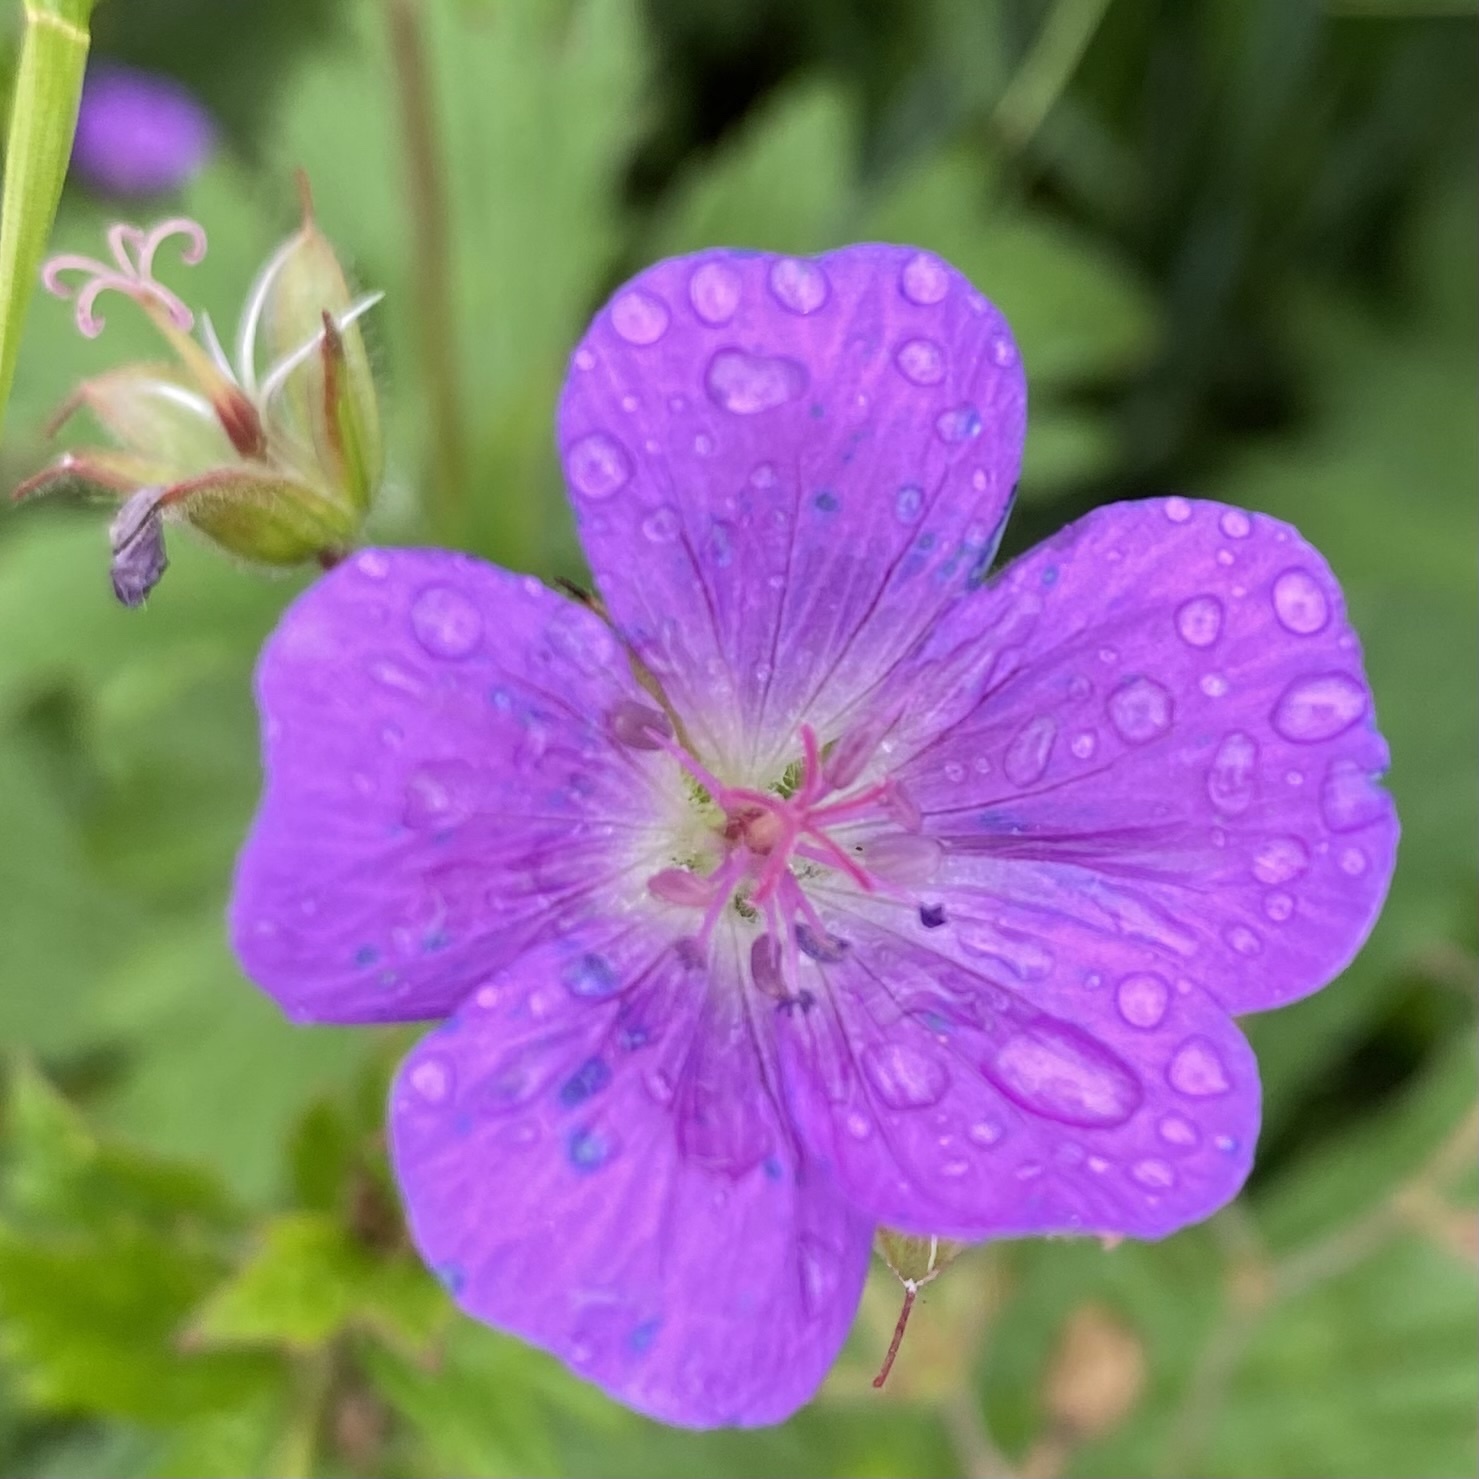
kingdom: Plantae
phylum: Tracheophyta
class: Magnoliopsida
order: Geraniales
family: Geraniaceae
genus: Geranium
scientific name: Geranium sylvaticum
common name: Wood crane's-bill
